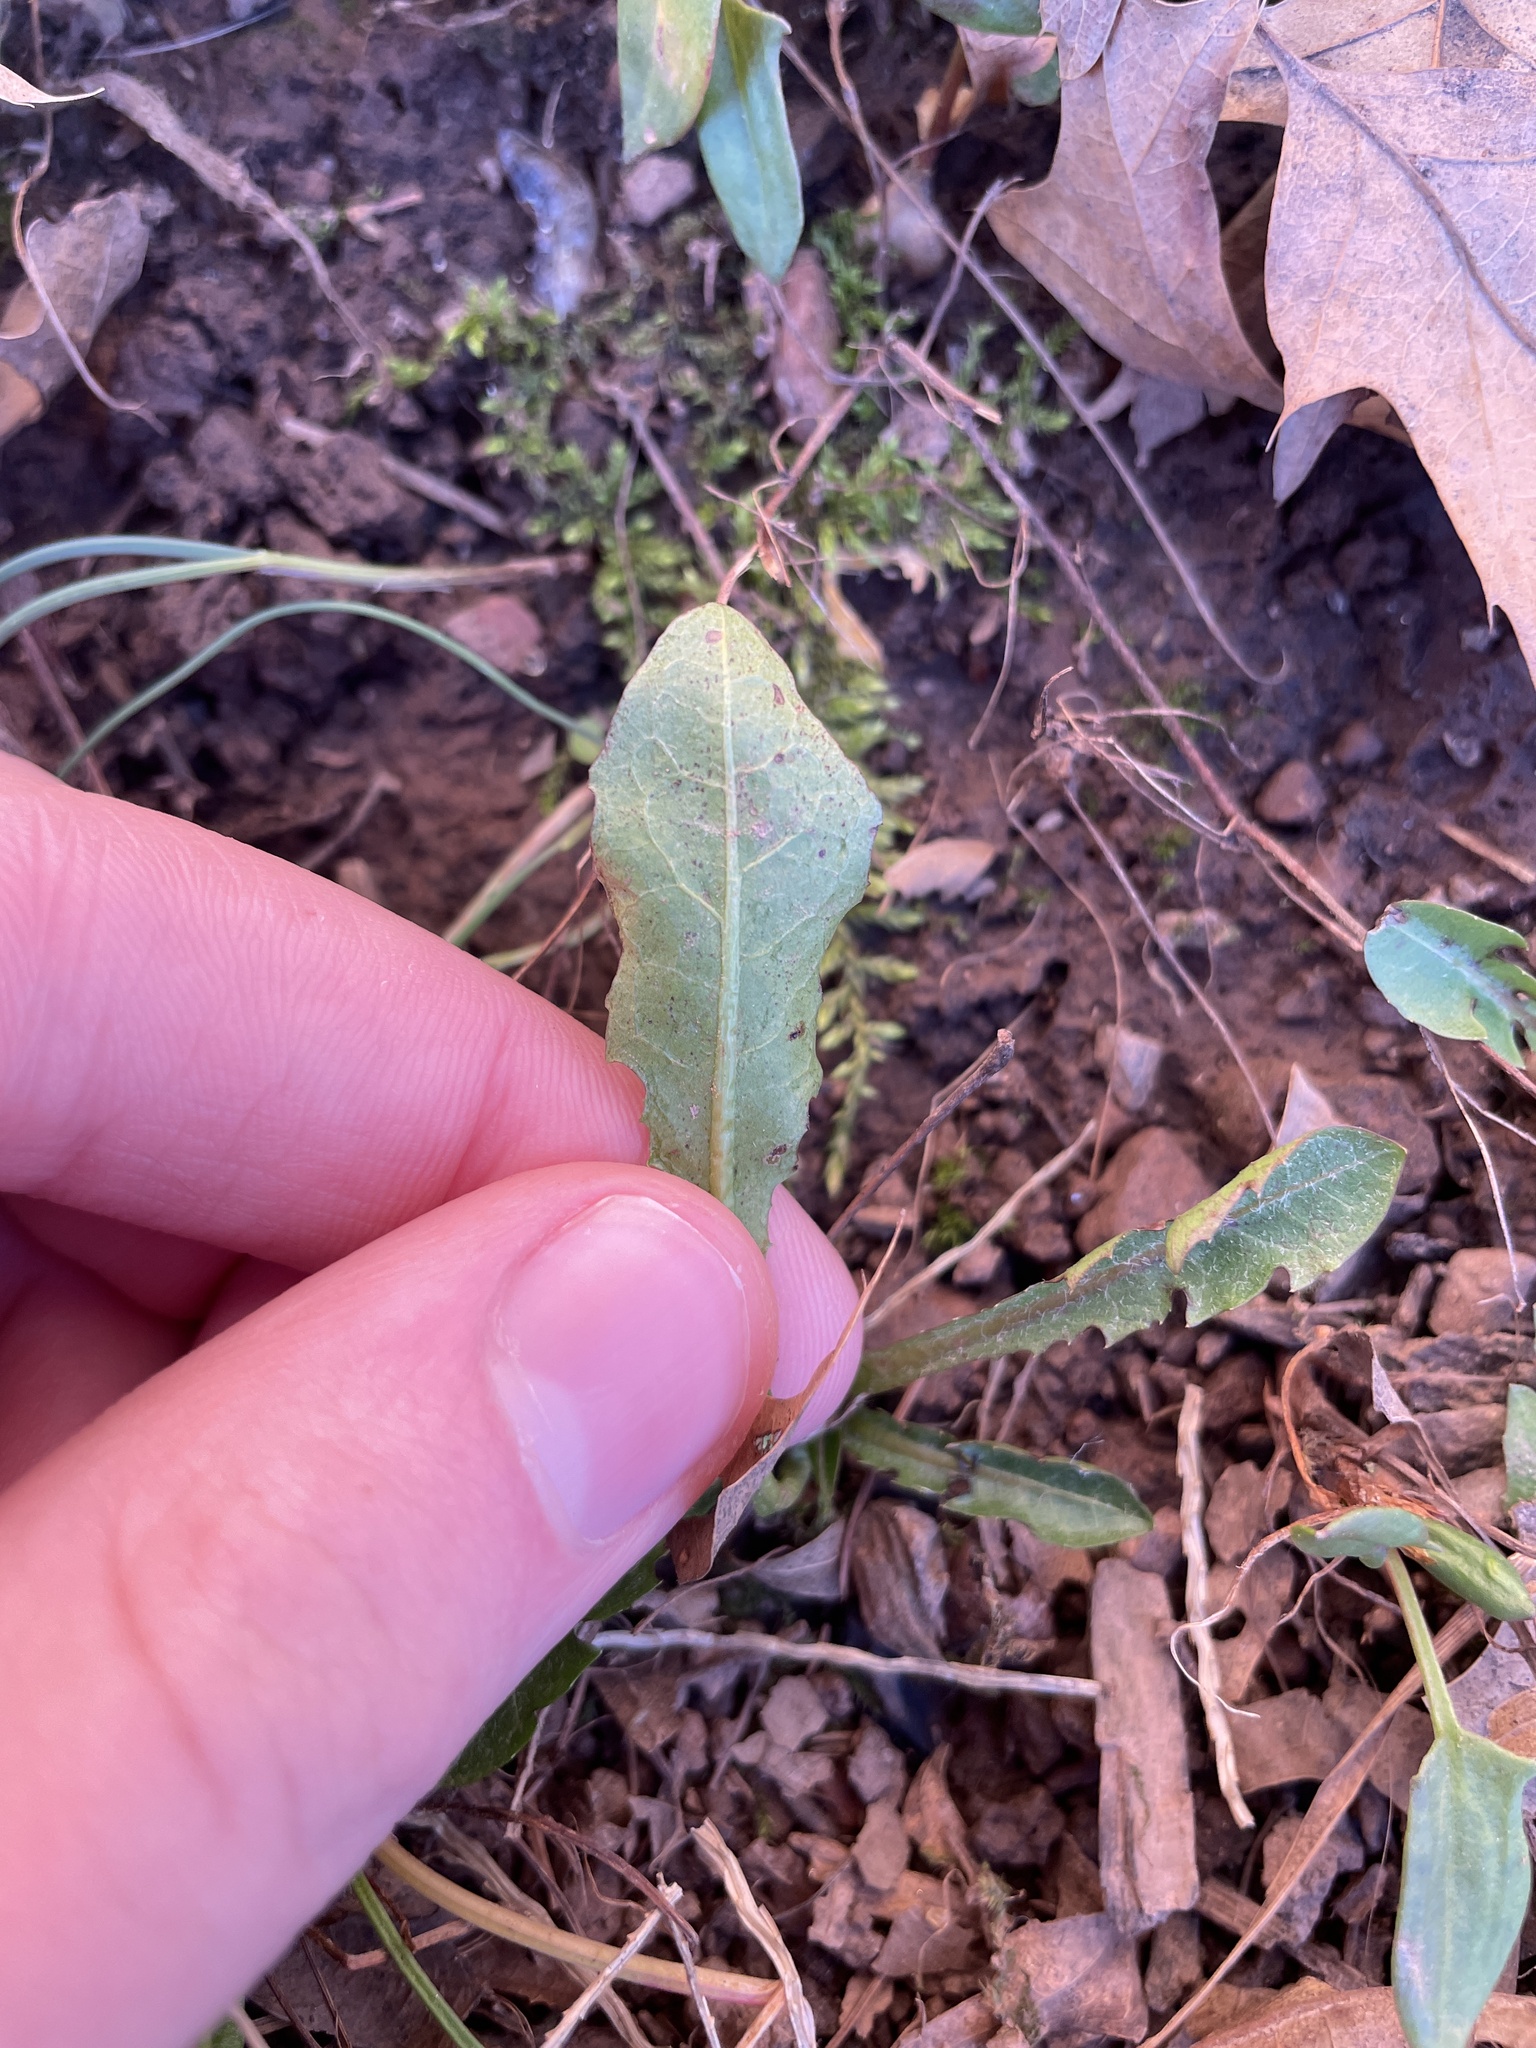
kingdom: Plantae
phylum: Tracheophyta
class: Magnoliopsida
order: Asterales
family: Asteraceae
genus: Taraxacum
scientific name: Taraxacum
